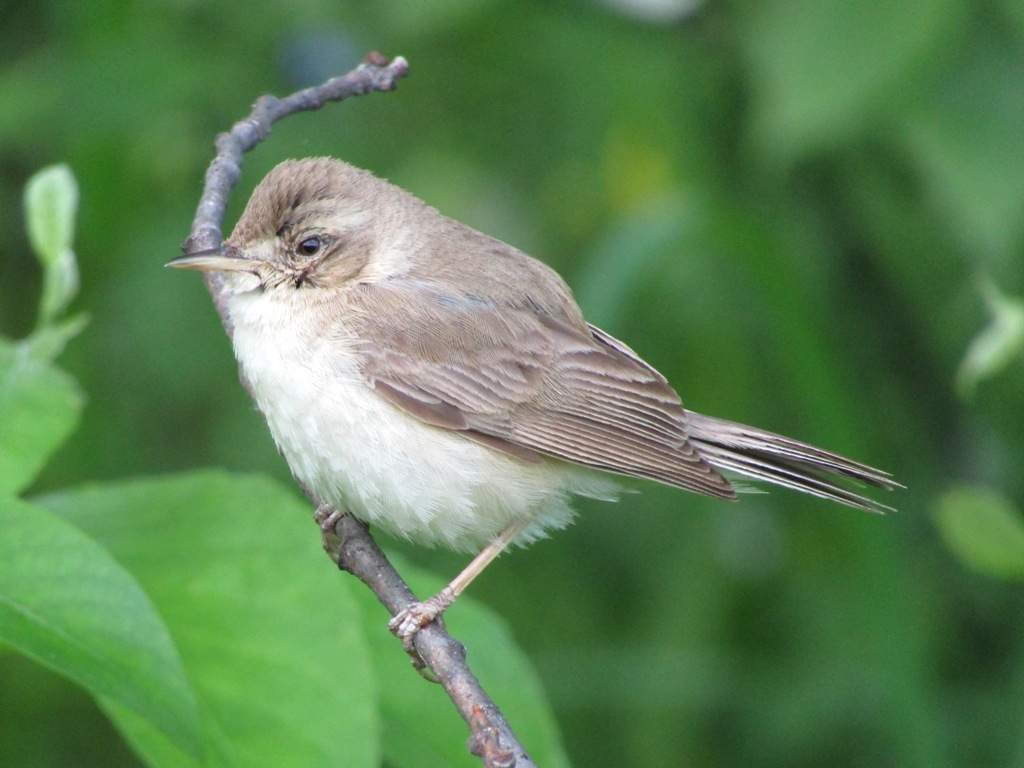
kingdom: Animalia
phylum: Chordata
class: Aves
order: Passeriformes
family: Acrocephalidae
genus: Iduna
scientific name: Iduna caligata
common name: Booted warbler
